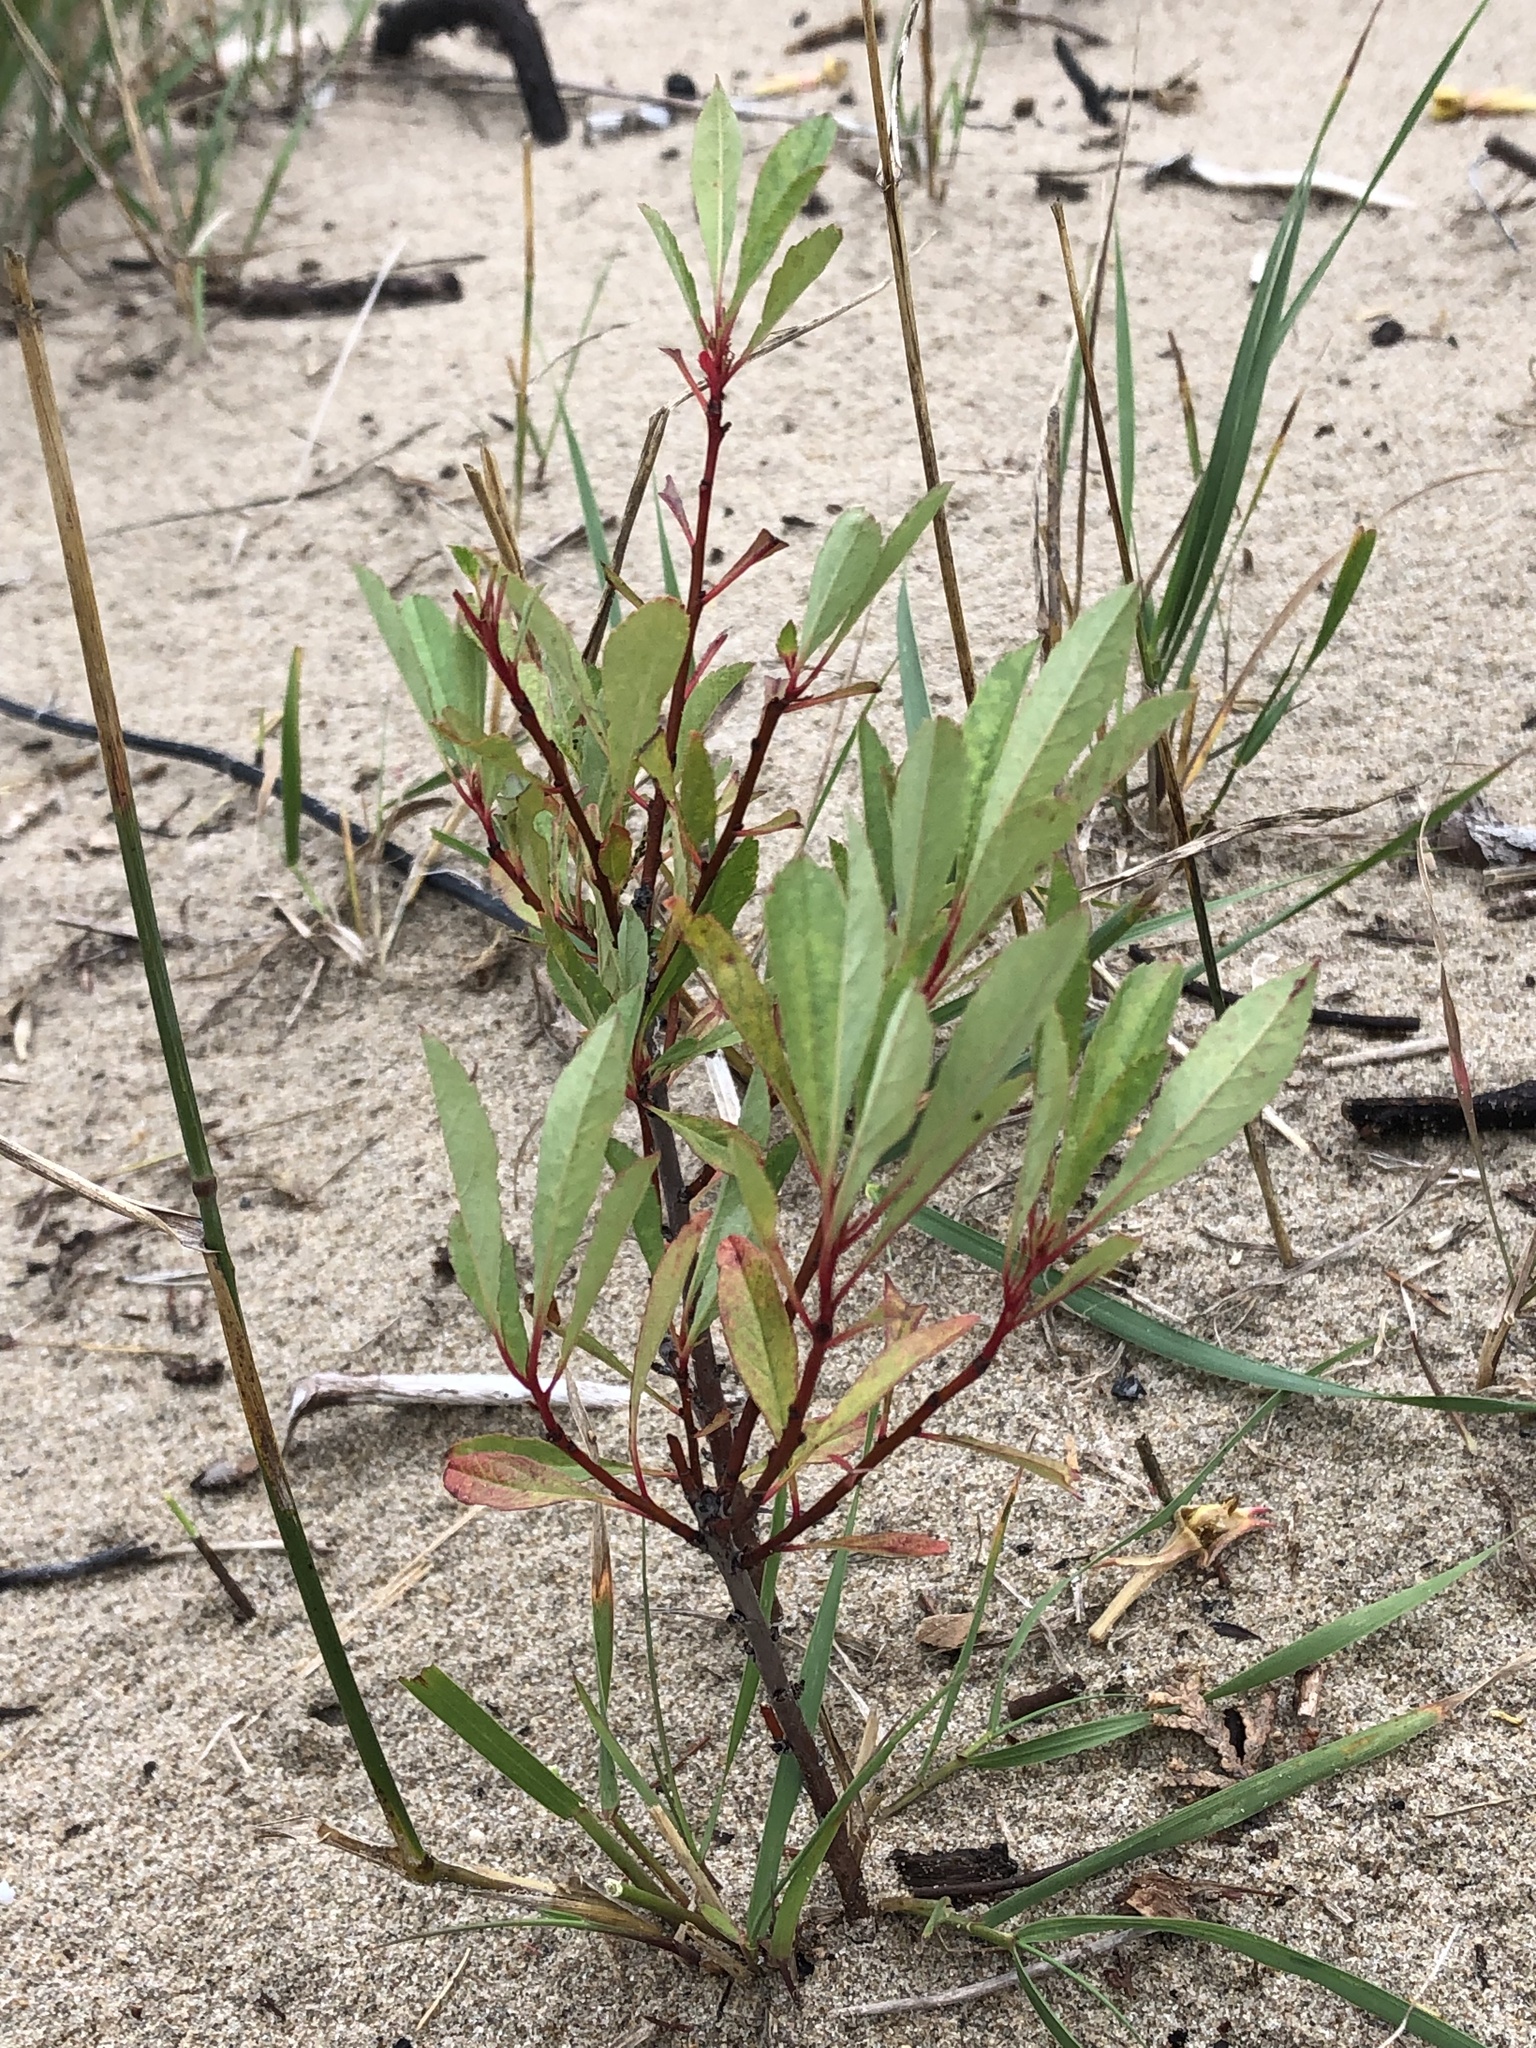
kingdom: Plantae
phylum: Tracheophyta
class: Magnoliopsida
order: Rosales
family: Rosaceae
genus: Prunus
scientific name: Prunus pumila
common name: Dwarf cherry
